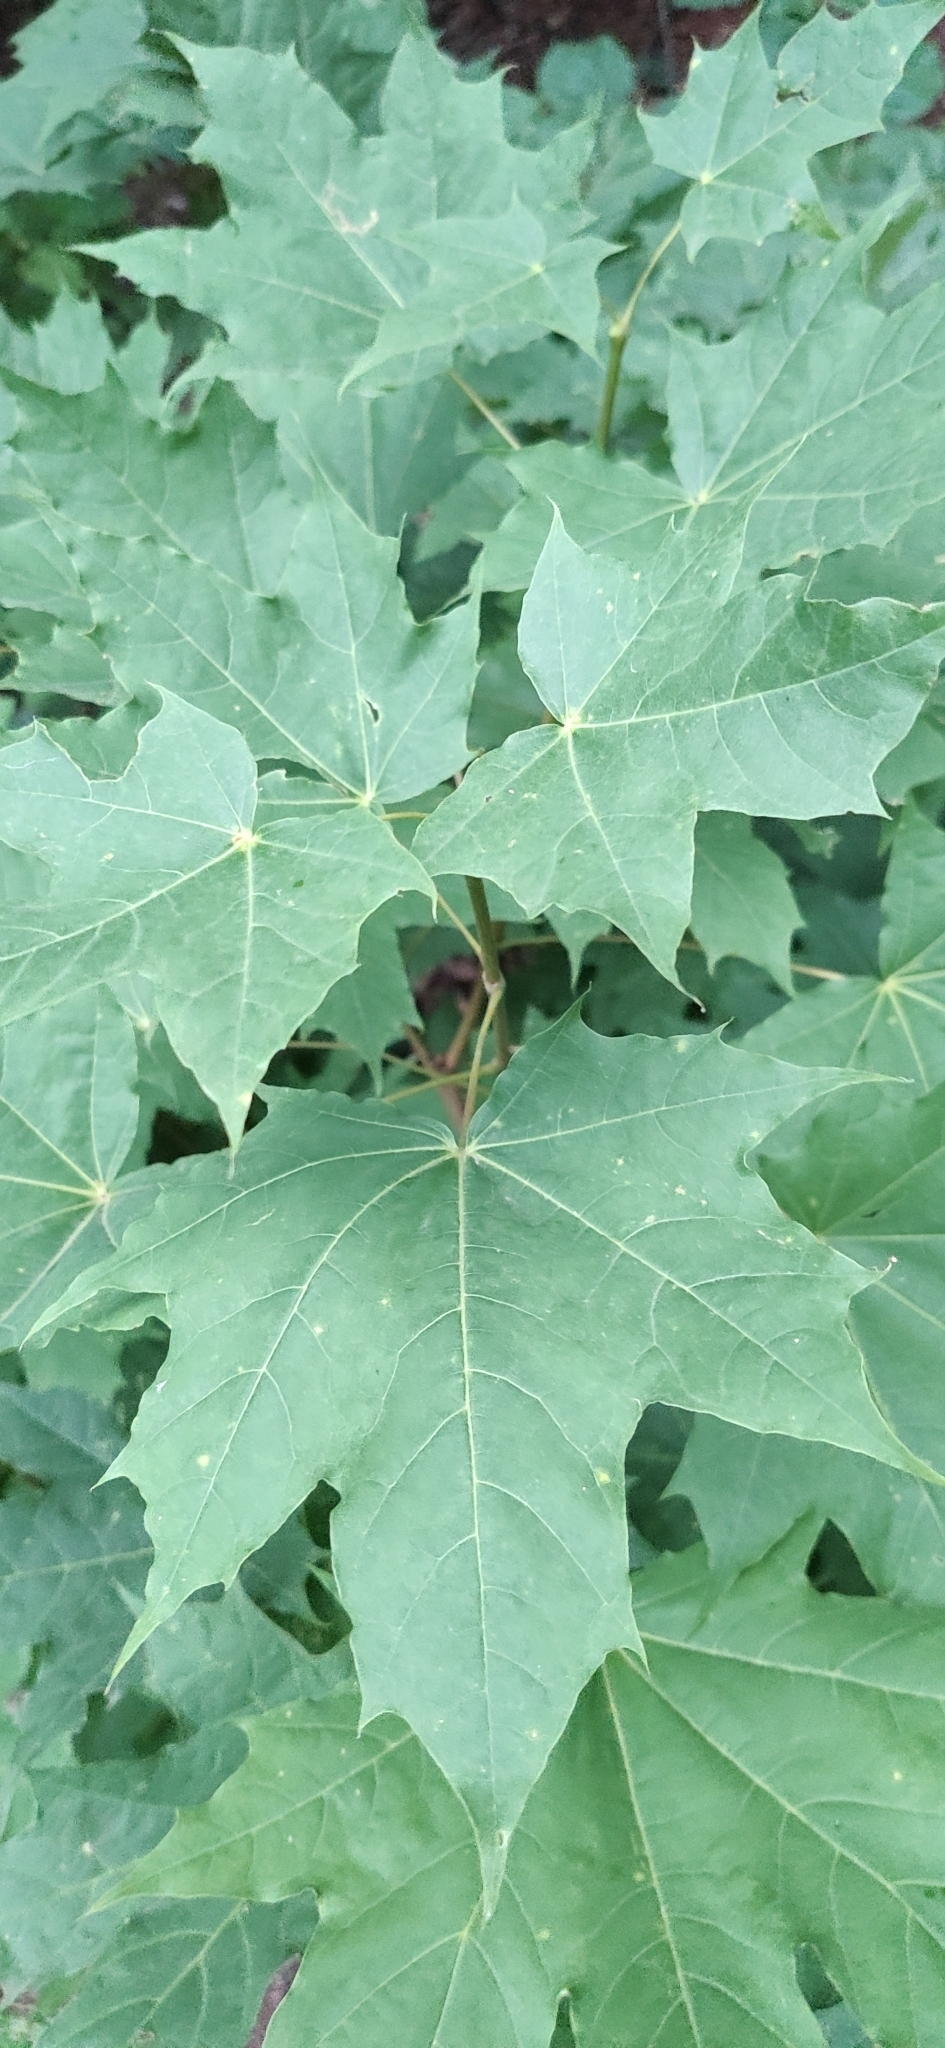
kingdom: Plantae
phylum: Tracheophyta
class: Magnoliopsida
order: Sapindales
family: Sapindaceae
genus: Acer
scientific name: Acer platanoides
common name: Norway maple
